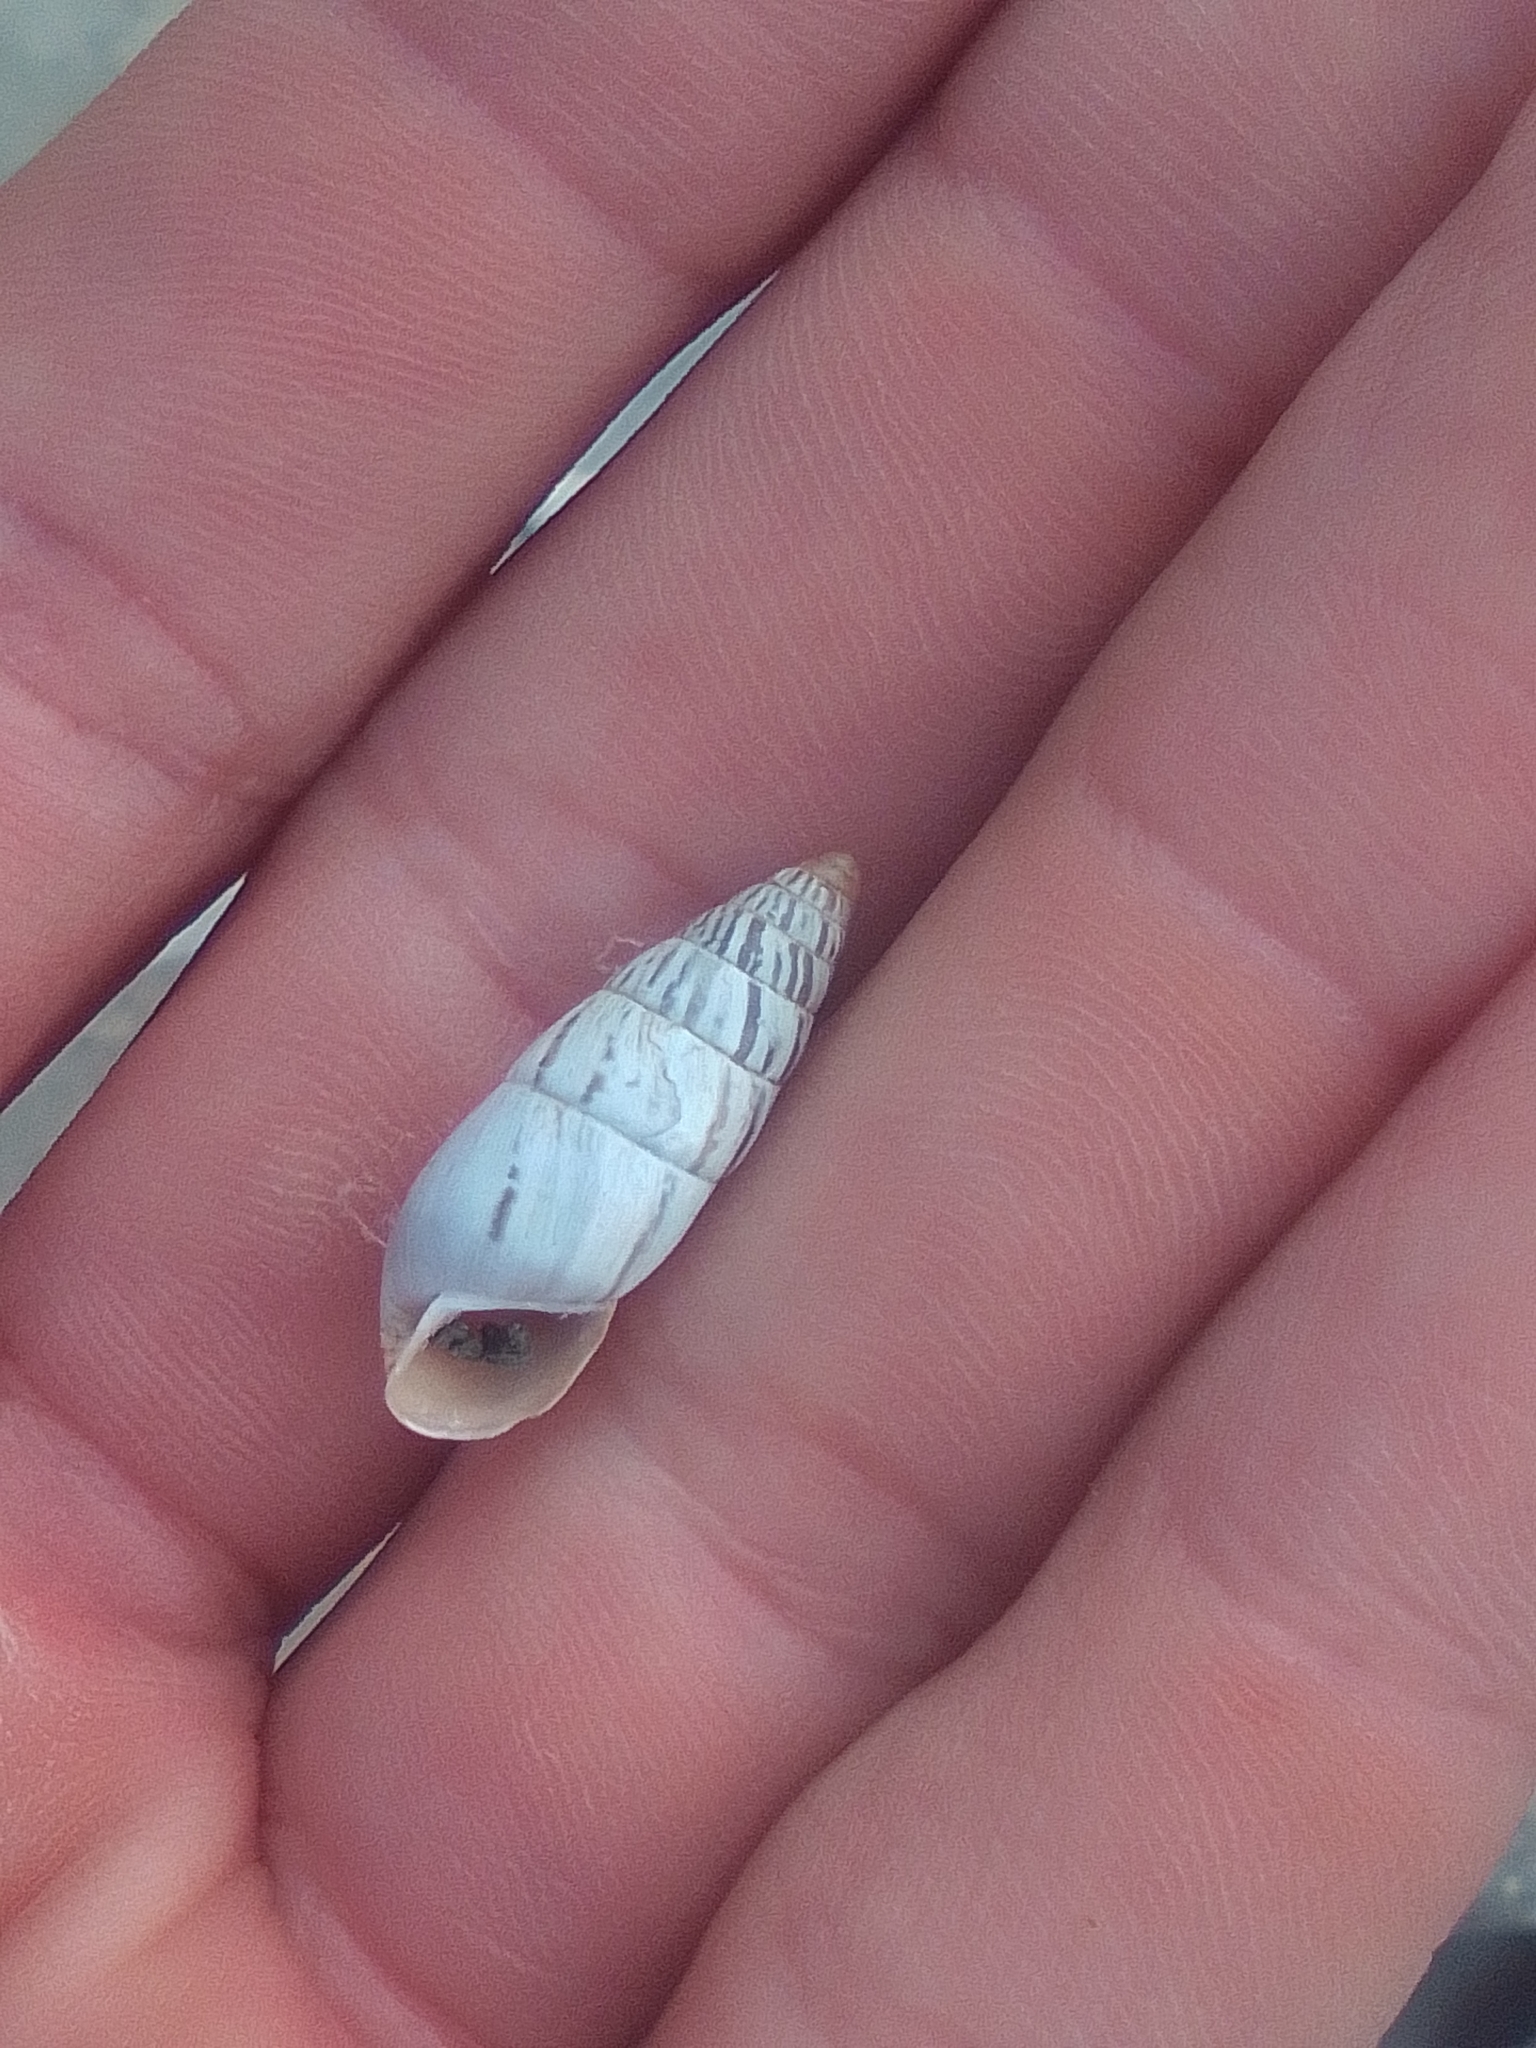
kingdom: Animalia
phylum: Mollusca
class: Gastropoda
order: Stylommatophora
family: Enidae
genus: Brephulopsis
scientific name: Brephulopsis cylindrica
